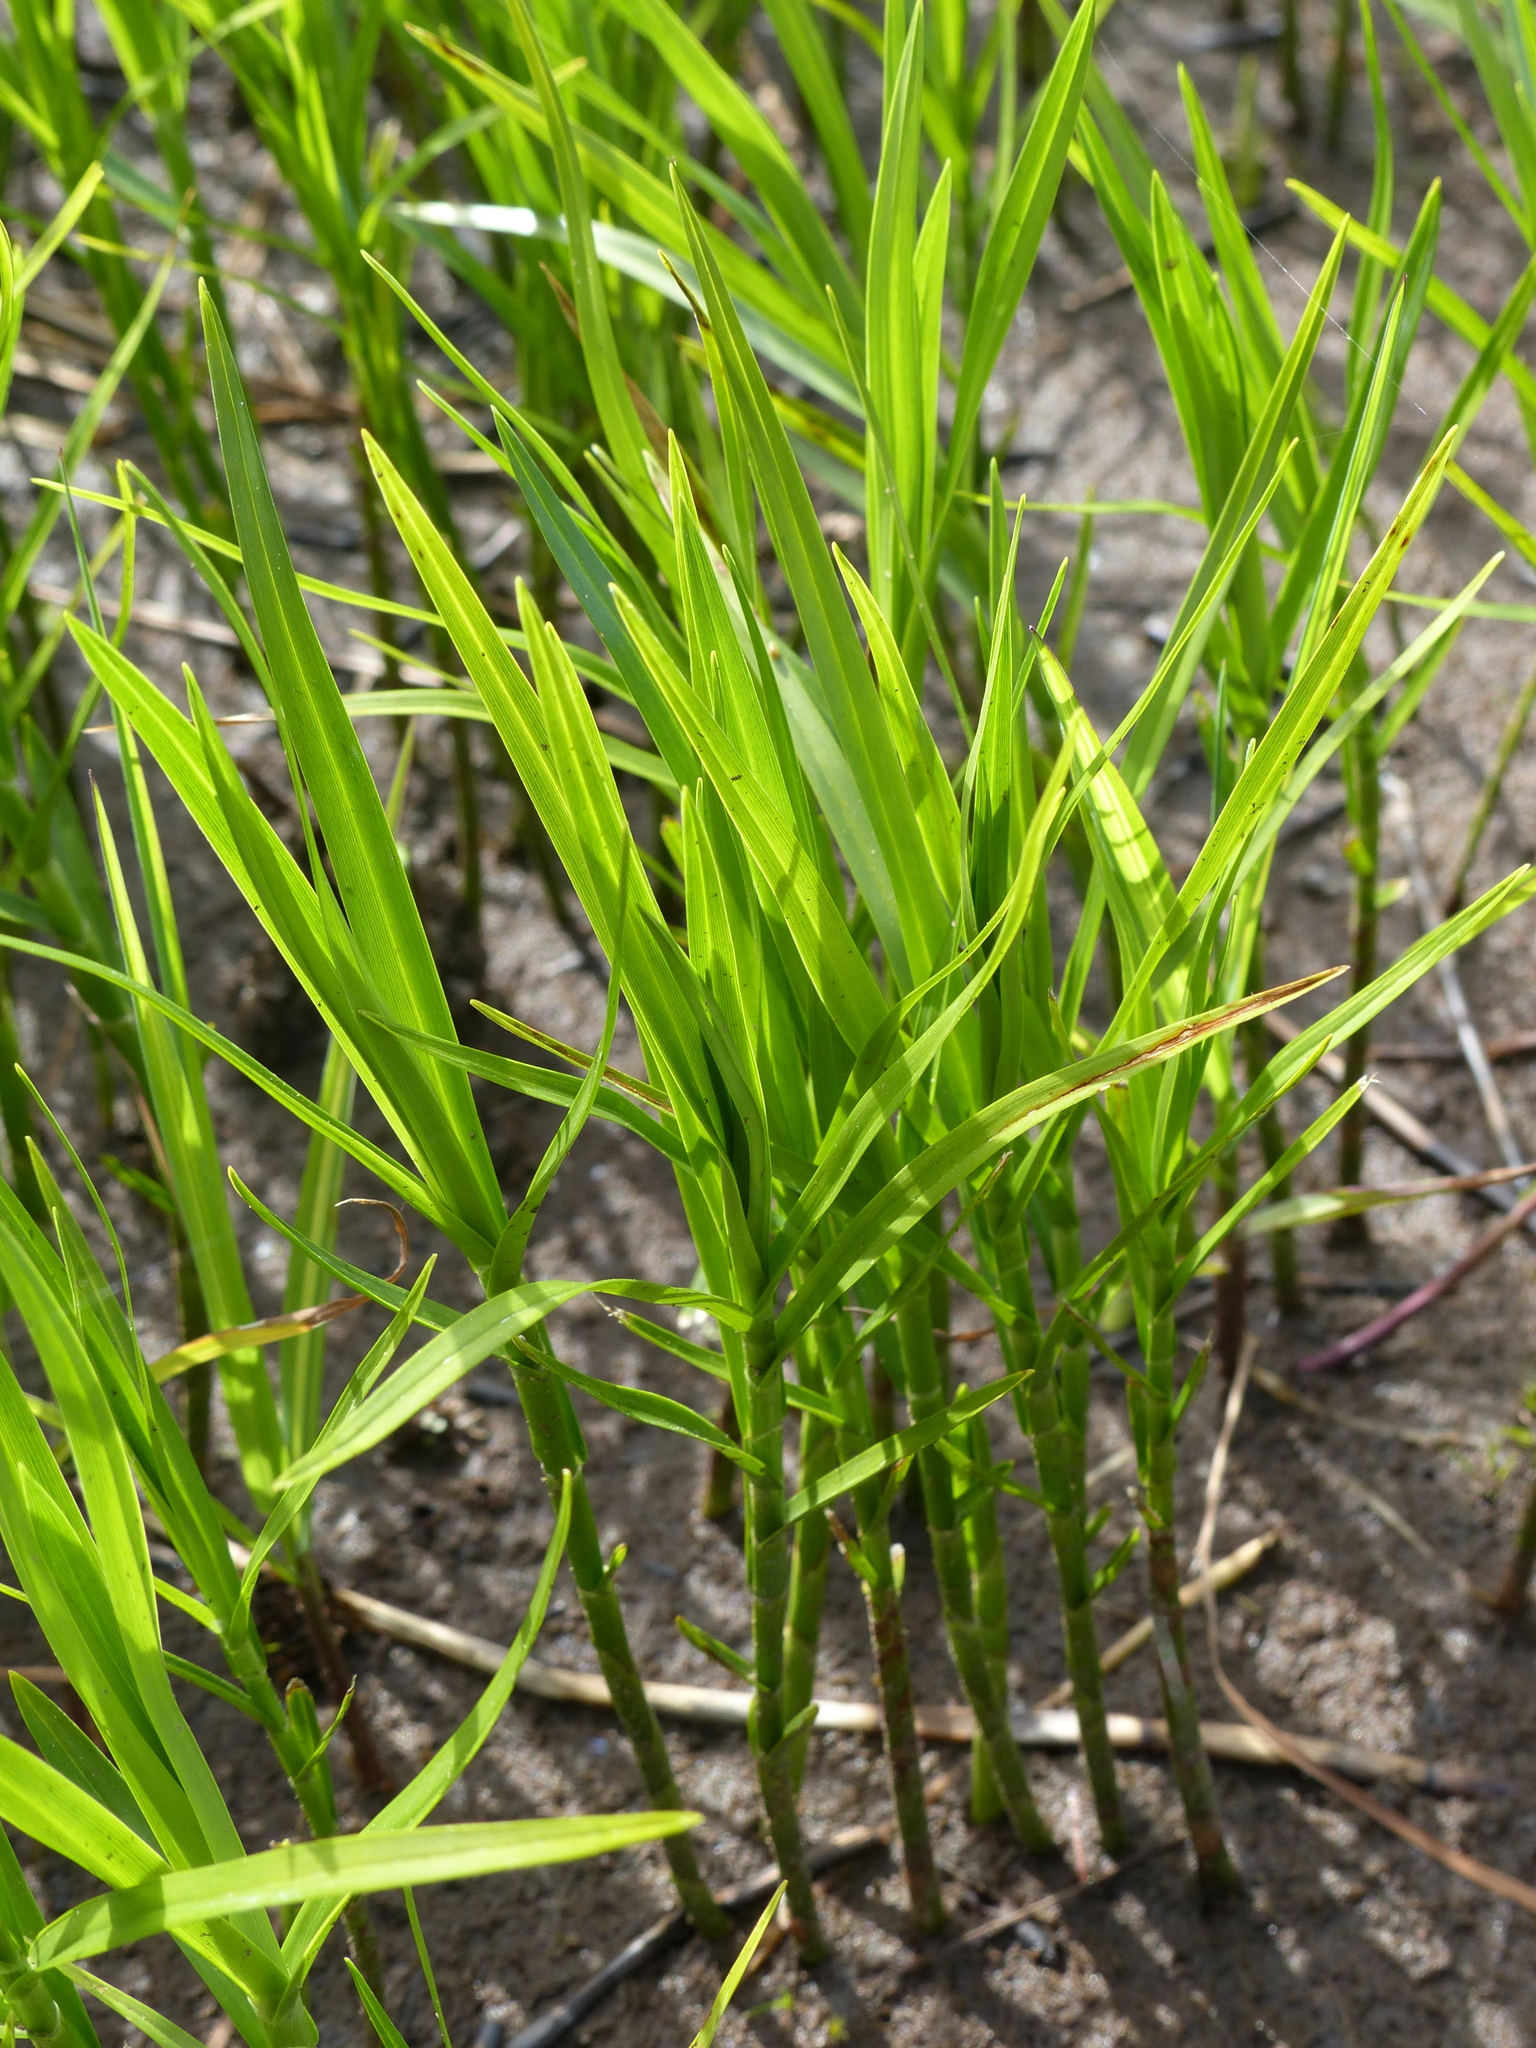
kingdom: Plantae
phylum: Tracheophyta
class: Liliopsida
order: Poales
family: Cyperaceae
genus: Dulichium
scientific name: Dulichium arundinaceum
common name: Three-way sedge
